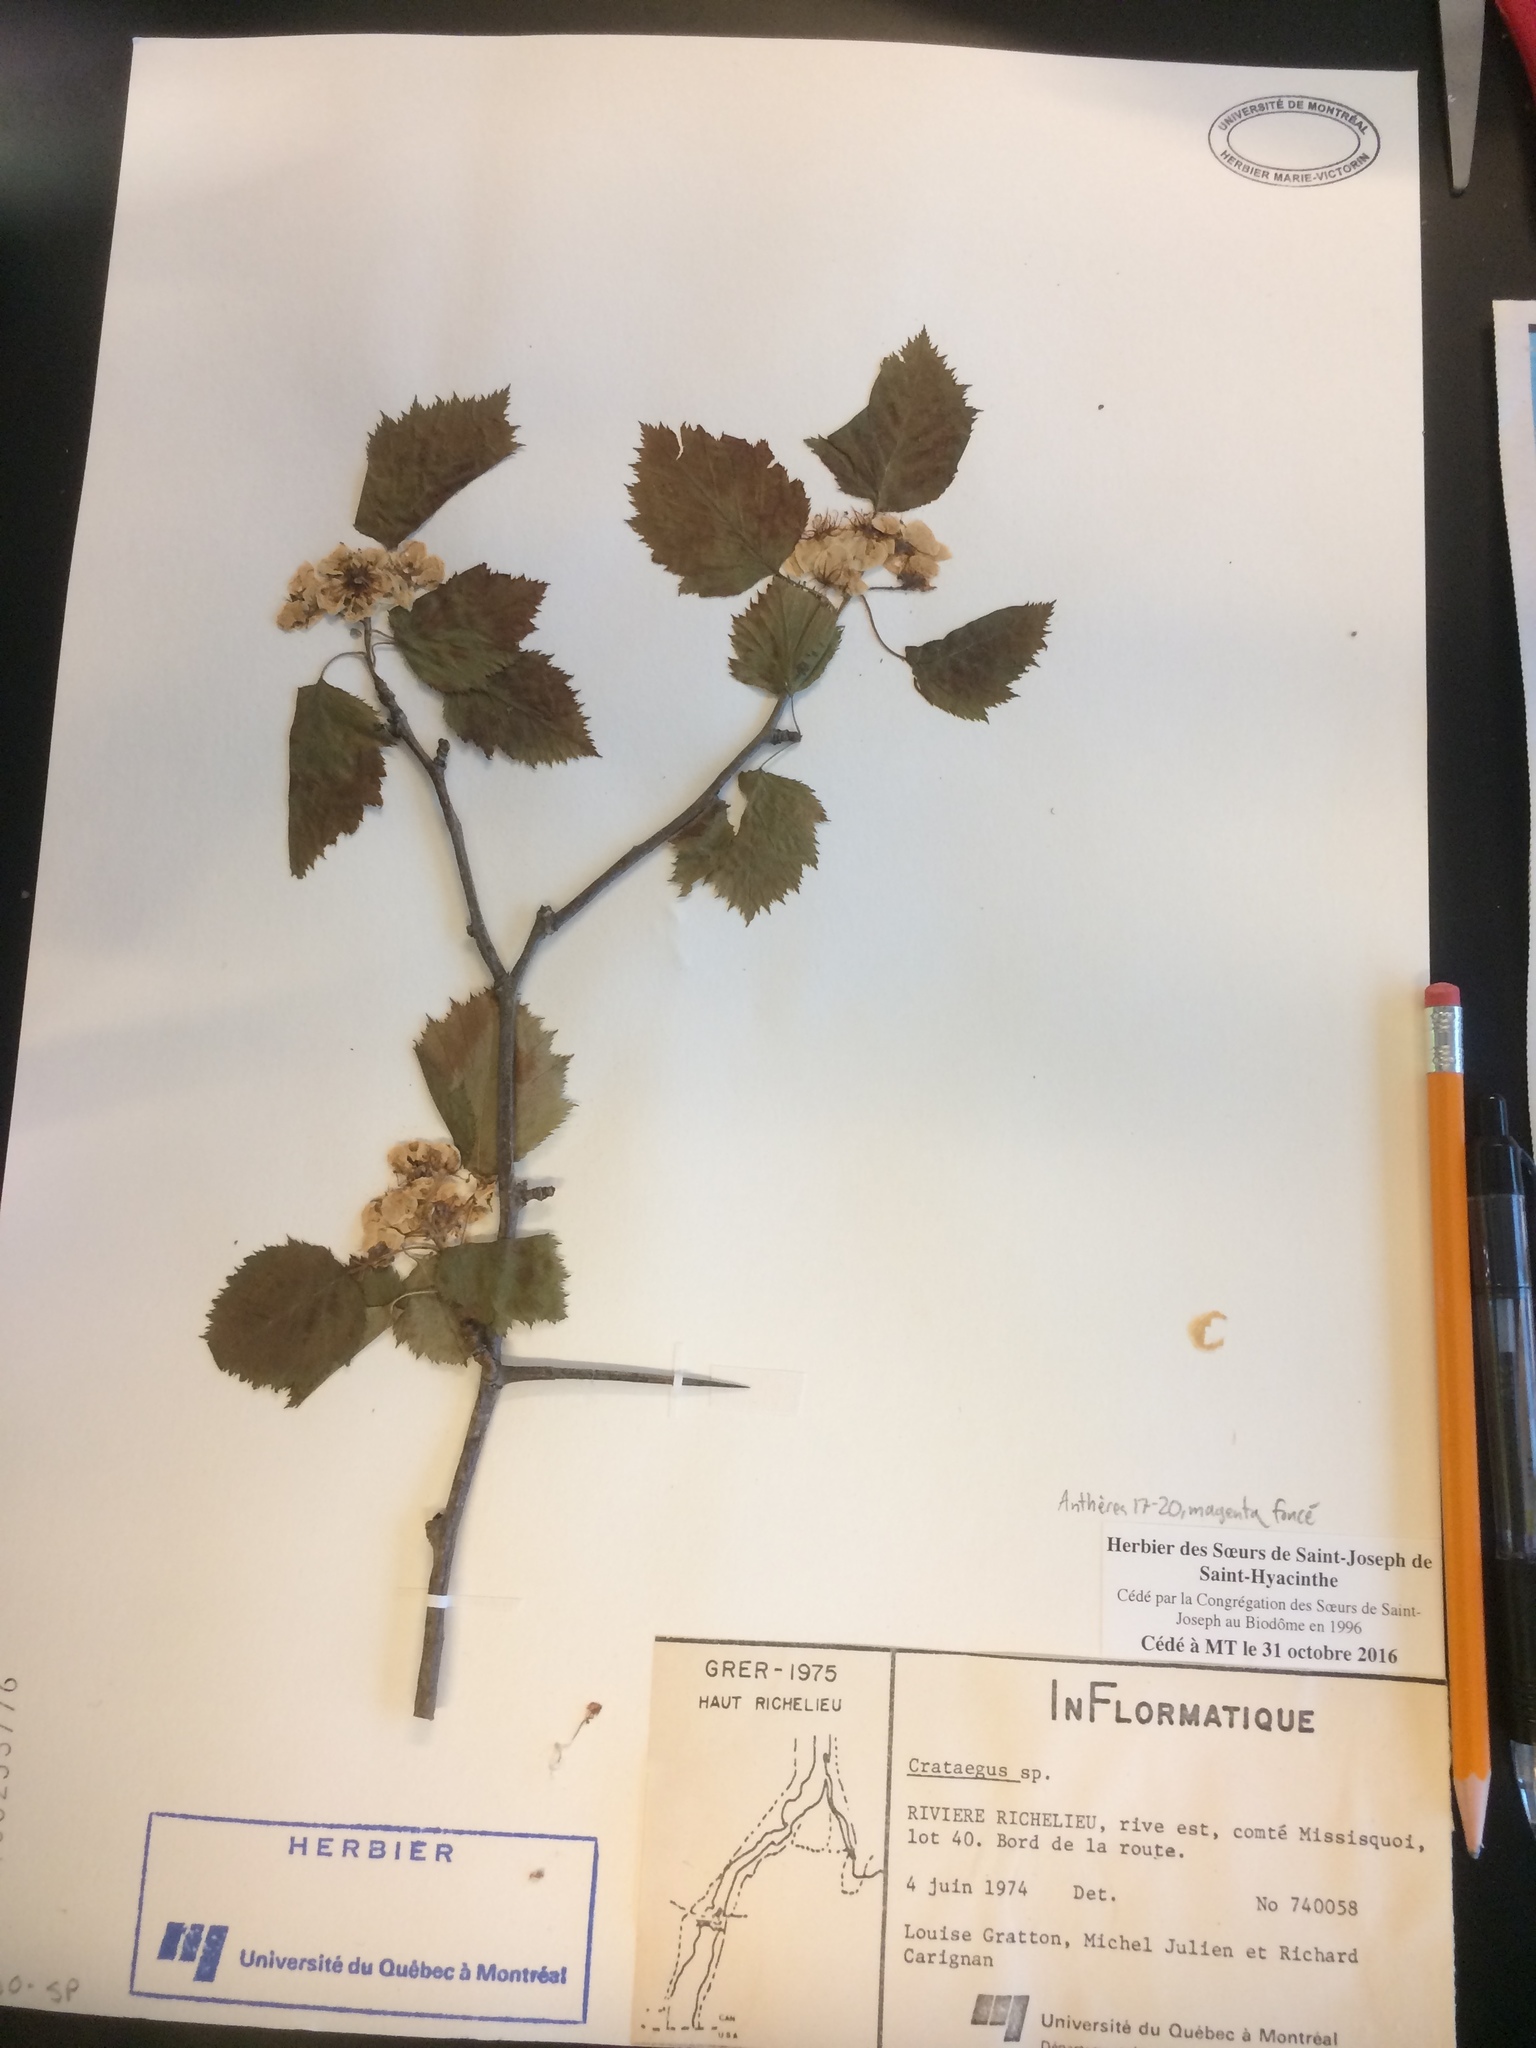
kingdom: Plantae
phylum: Tracheophyta
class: Magnoliopsida
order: Rosales
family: Rosaceae
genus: Crataegus
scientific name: Crataegus coccinioides
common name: Large-flowered cockspurthorn
